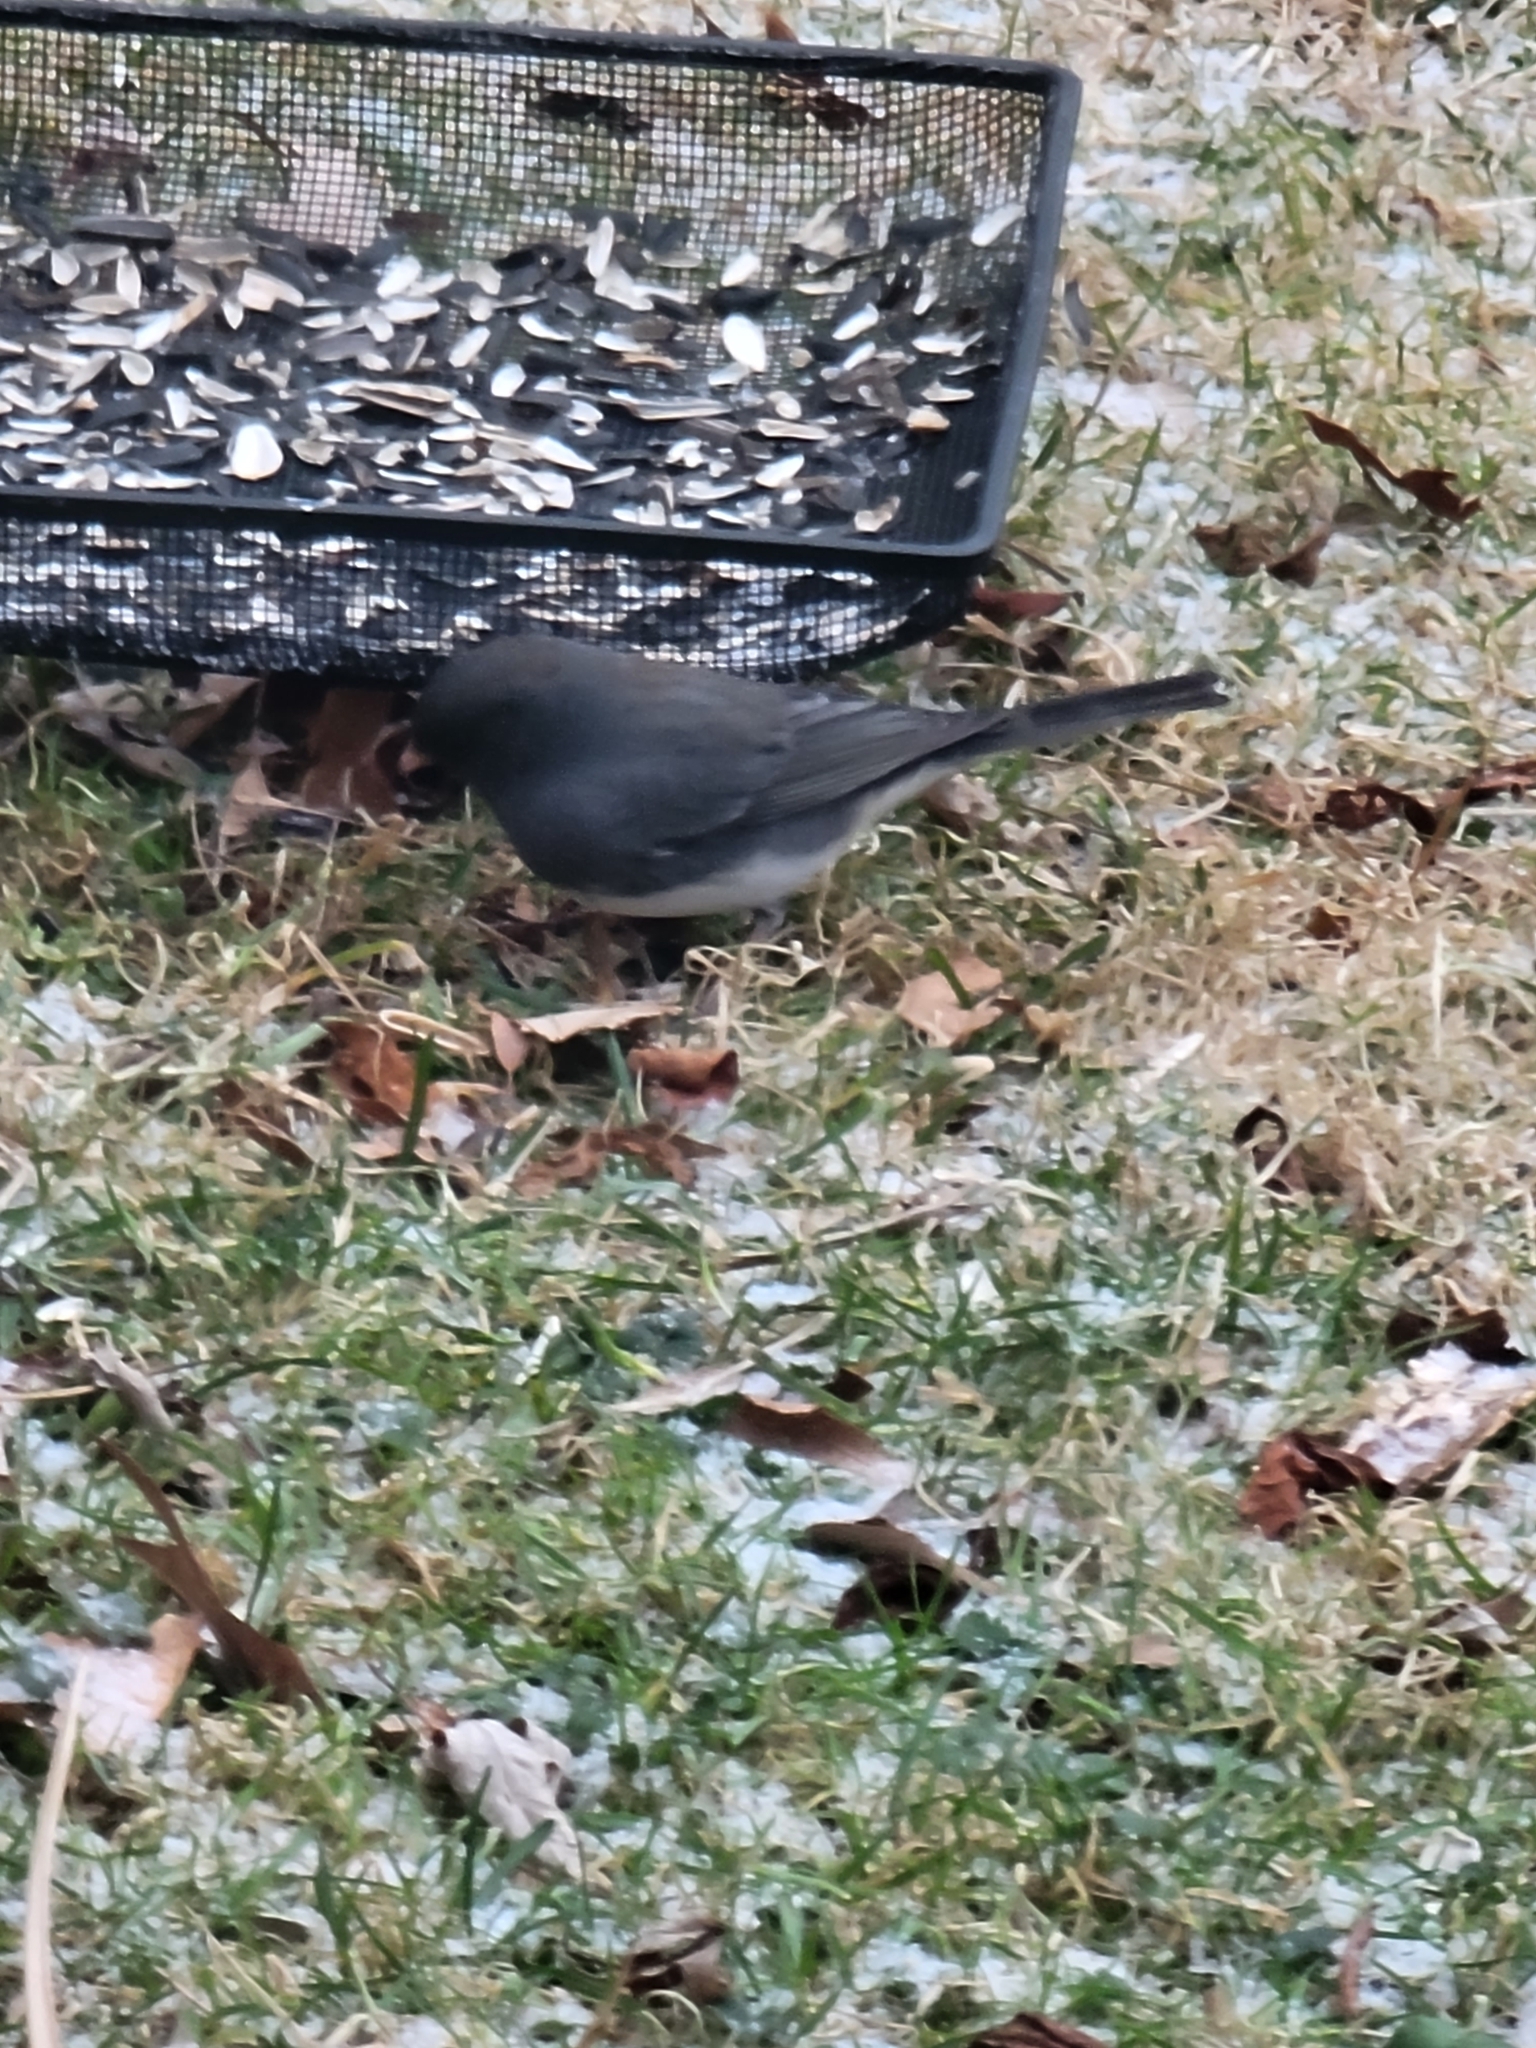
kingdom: Animalia
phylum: Chordata
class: Aves
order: Passeriformes
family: Passerellidae
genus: Junco
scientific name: Junco hyemalis
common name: Dark-eyed junco
